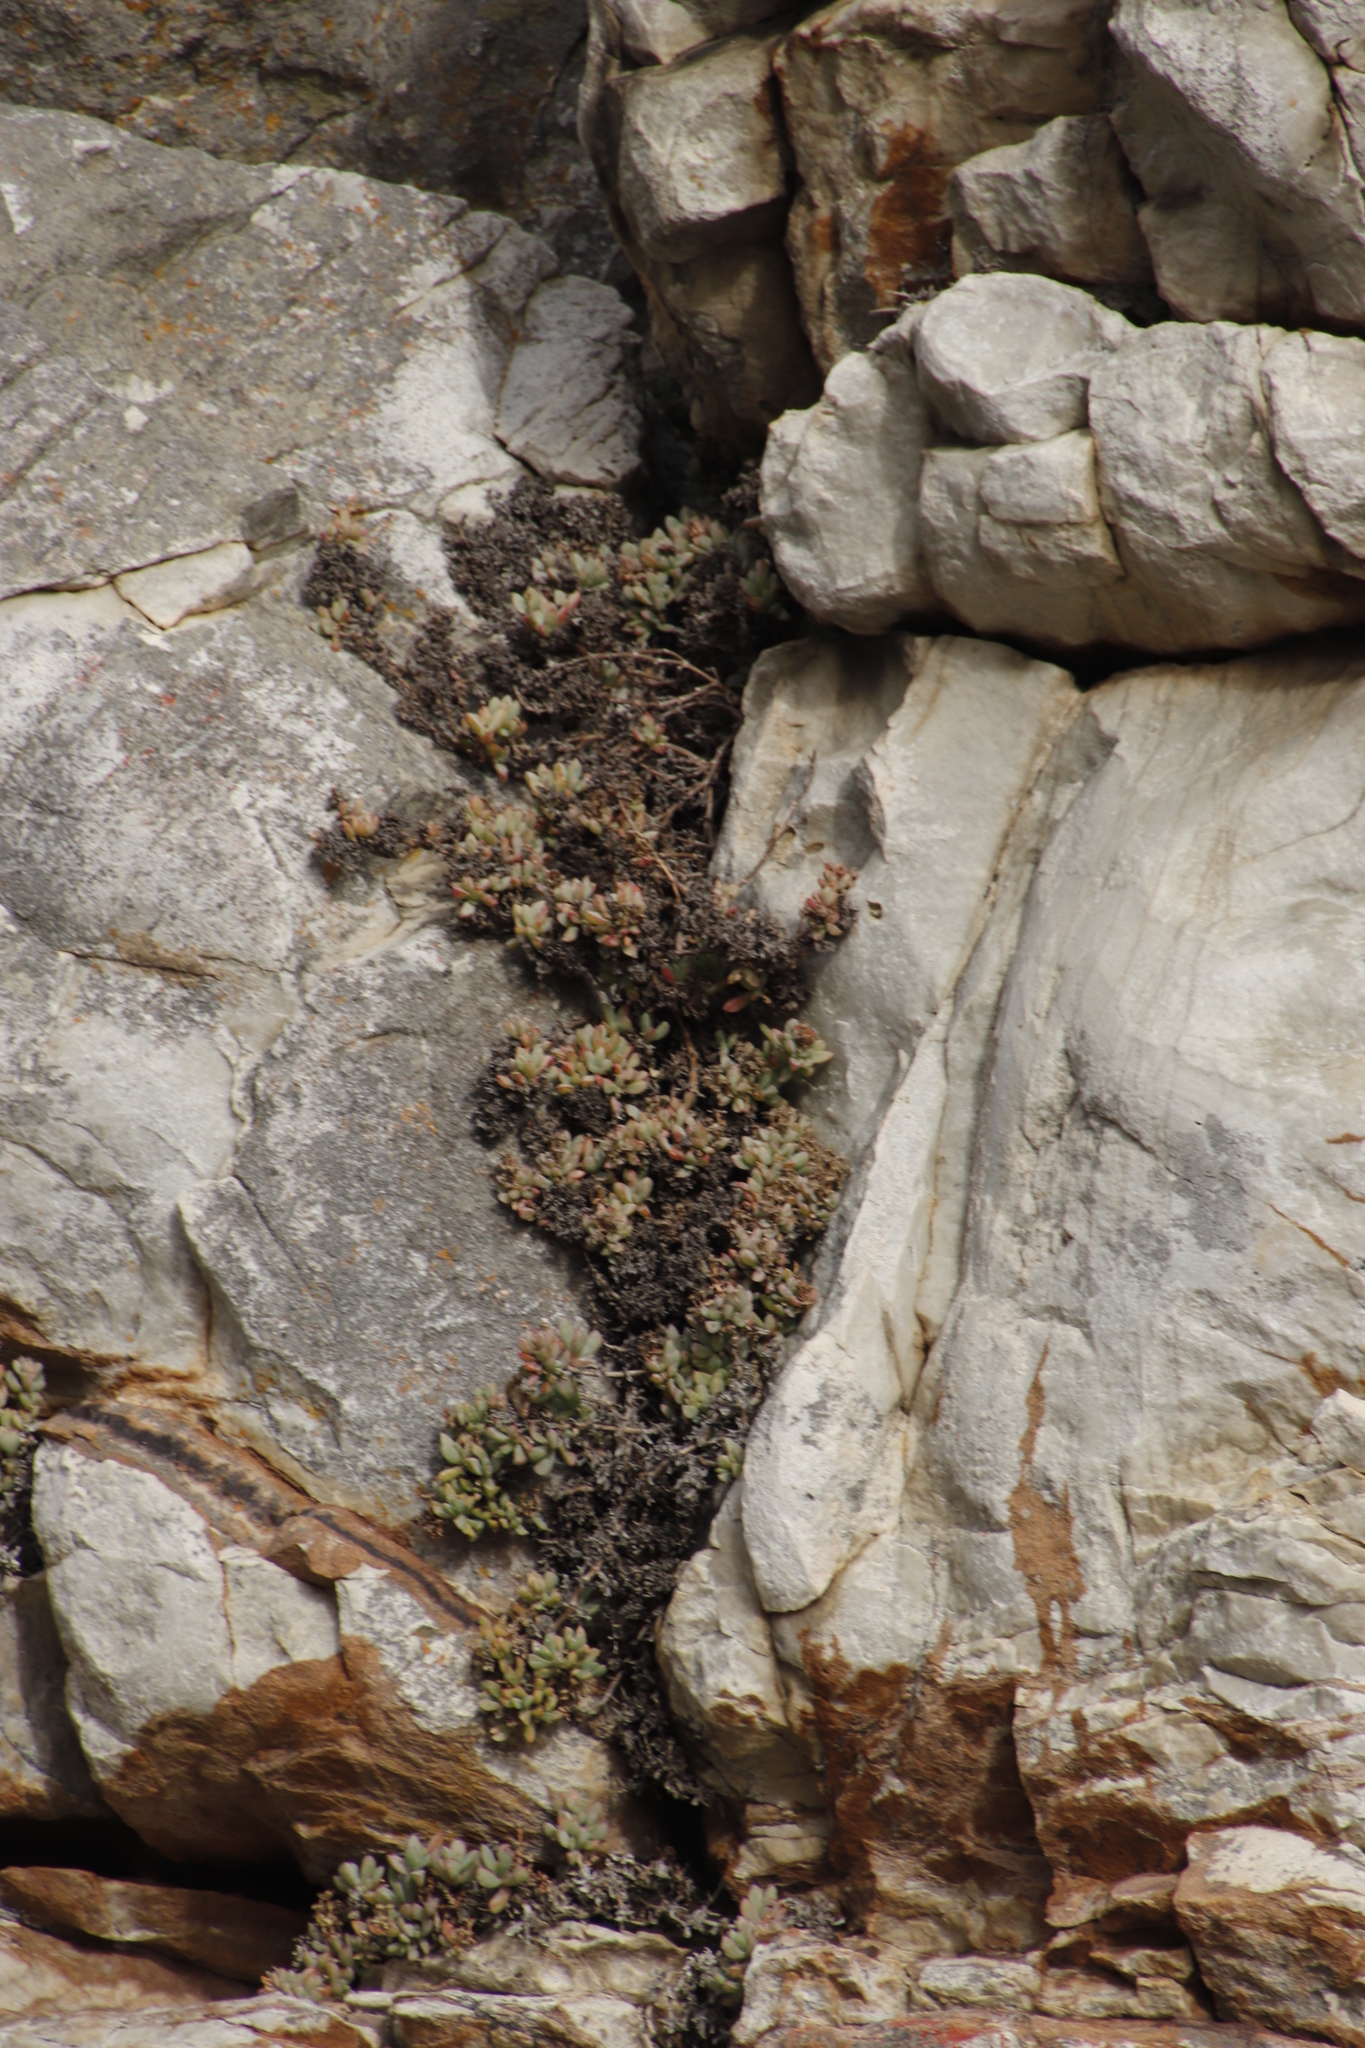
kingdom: Plantae
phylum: Tracheophyta
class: Magnoliopsida
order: Caryophyllales
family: Aizoaceae
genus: Oscularia
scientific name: Oscularia deltoides
